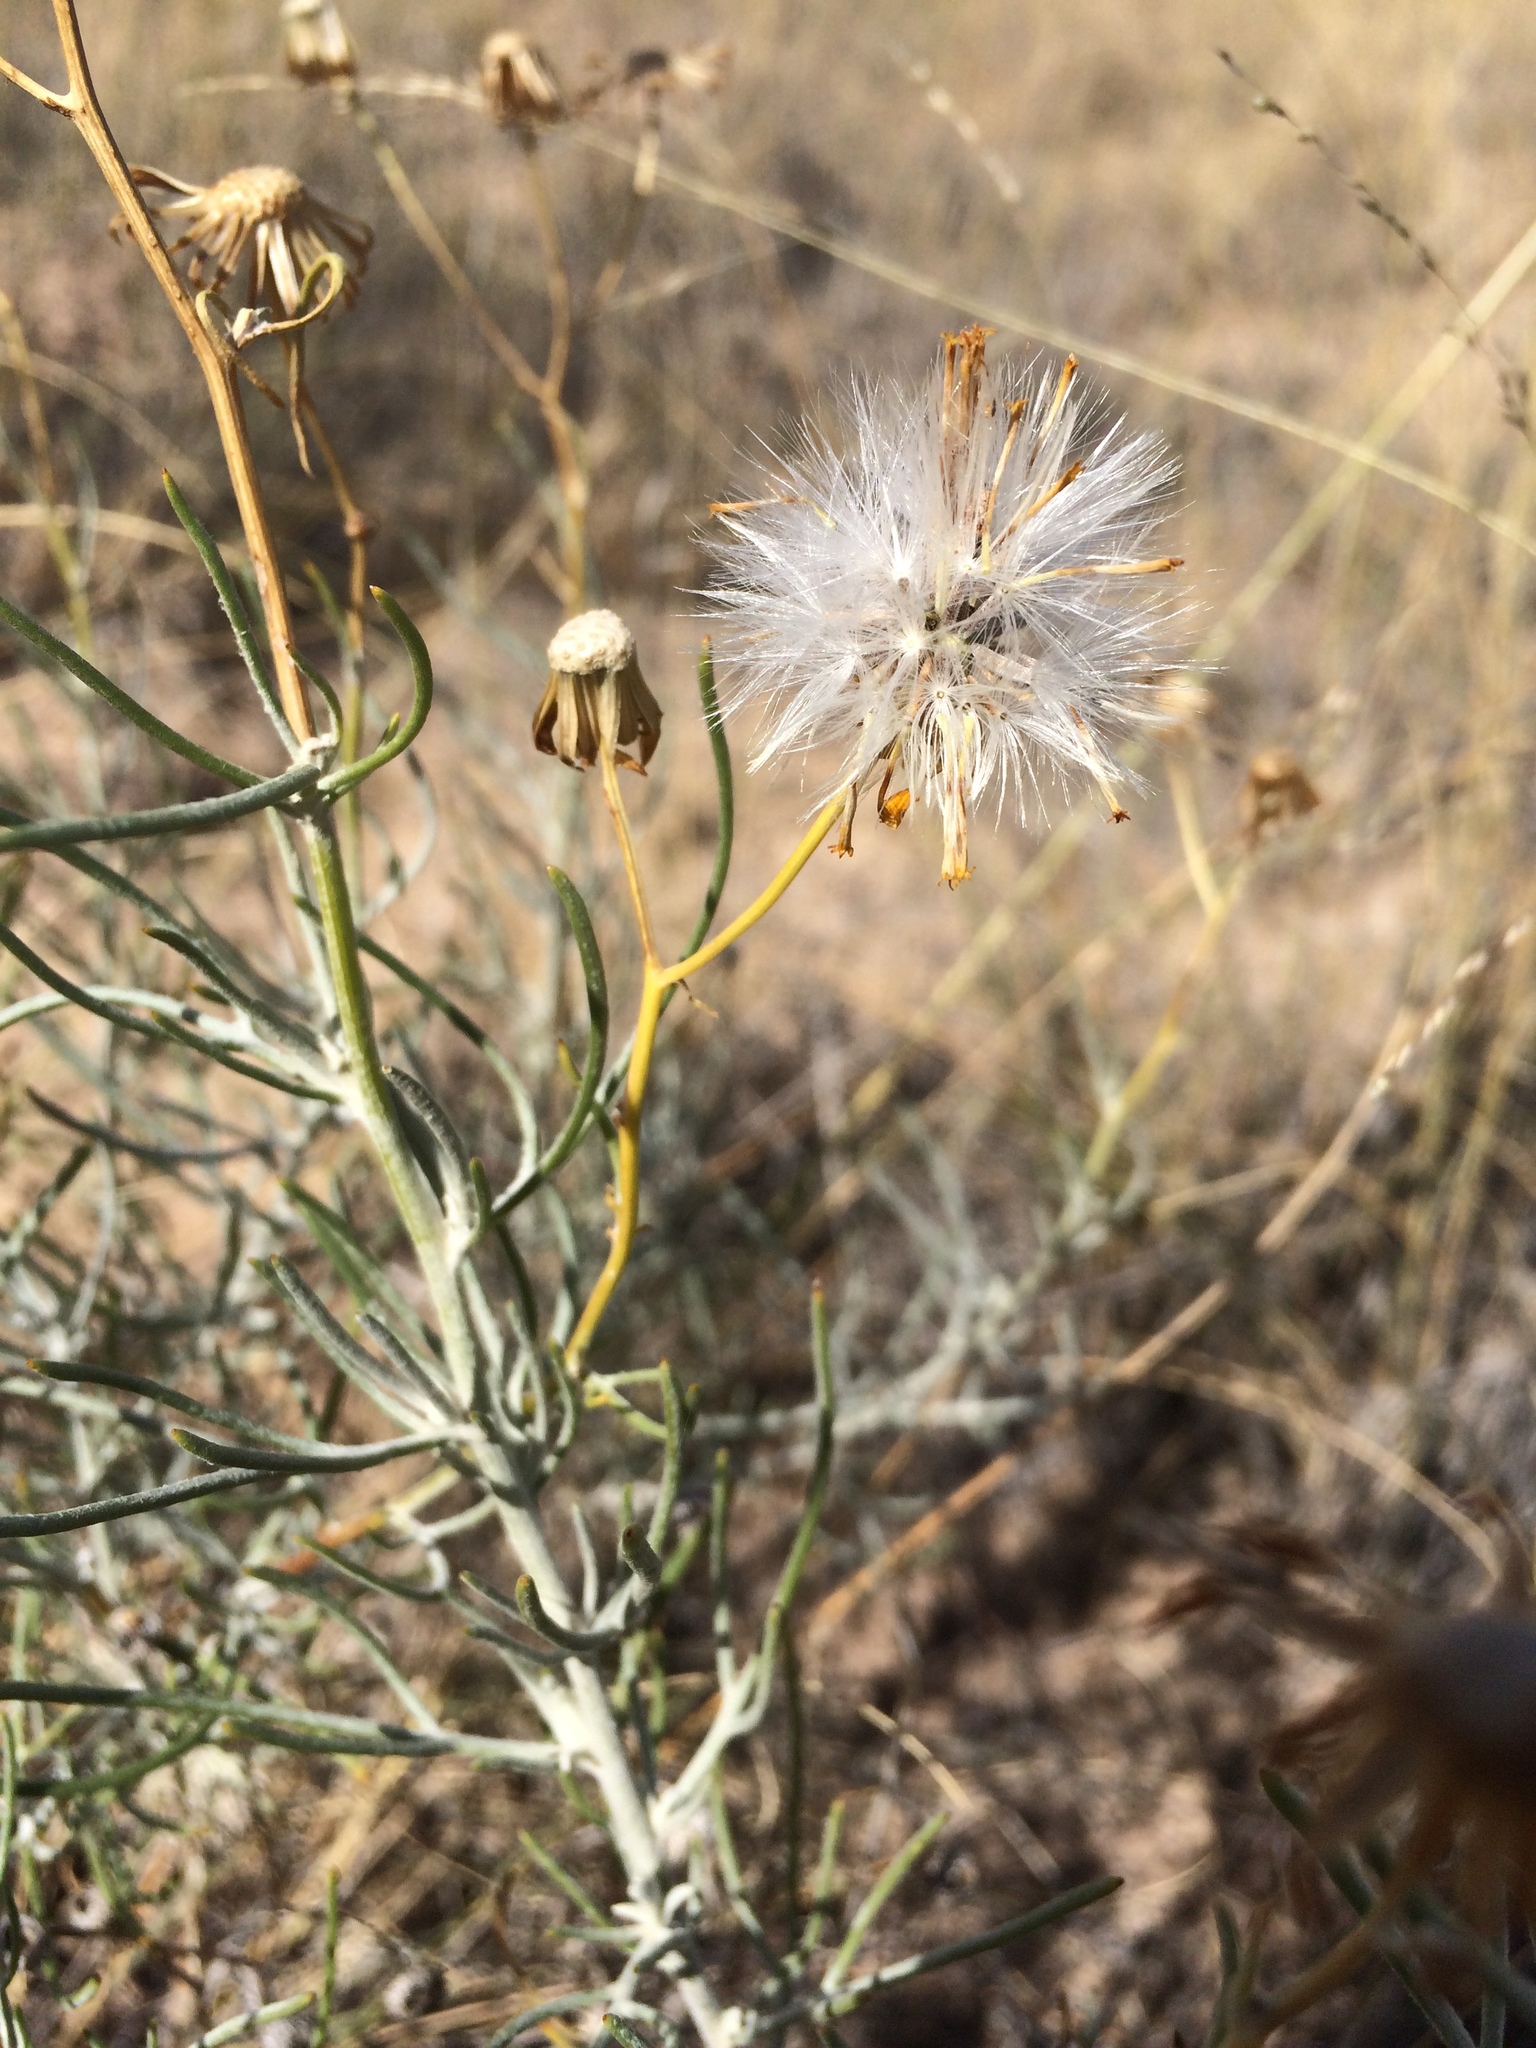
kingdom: Plantae
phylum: Tracheophyta
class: Magnoliopsida
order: Asterales
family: Asteraceae
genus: Senecio
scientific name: Senecio flaccidus
